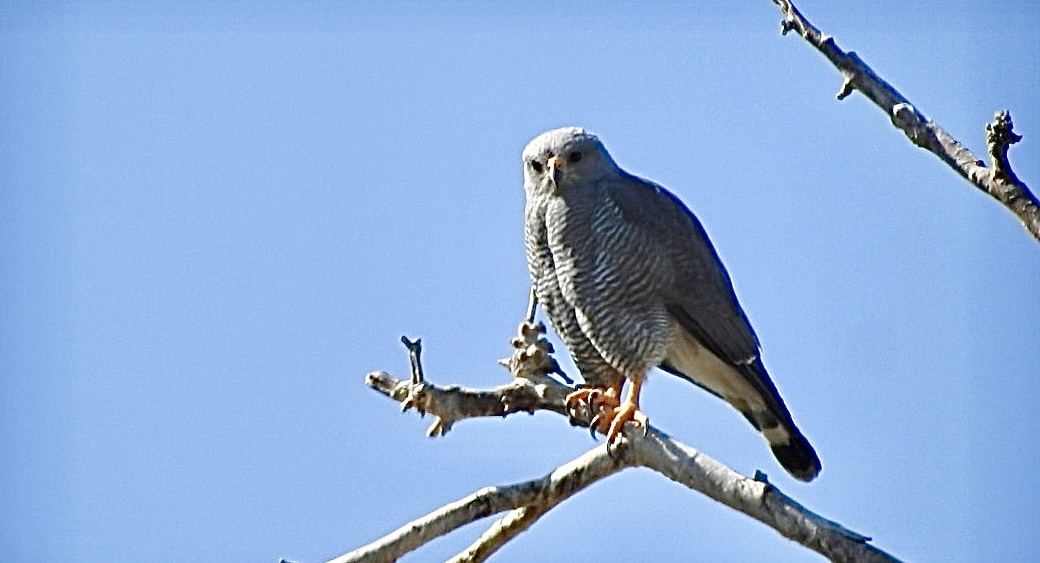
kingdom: Animalia
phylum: Chordata
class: Aves
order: Accipitriformes
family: Accipitridae
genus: Buteo
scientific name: Buteo nitidus
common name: Grey-lined hawk
